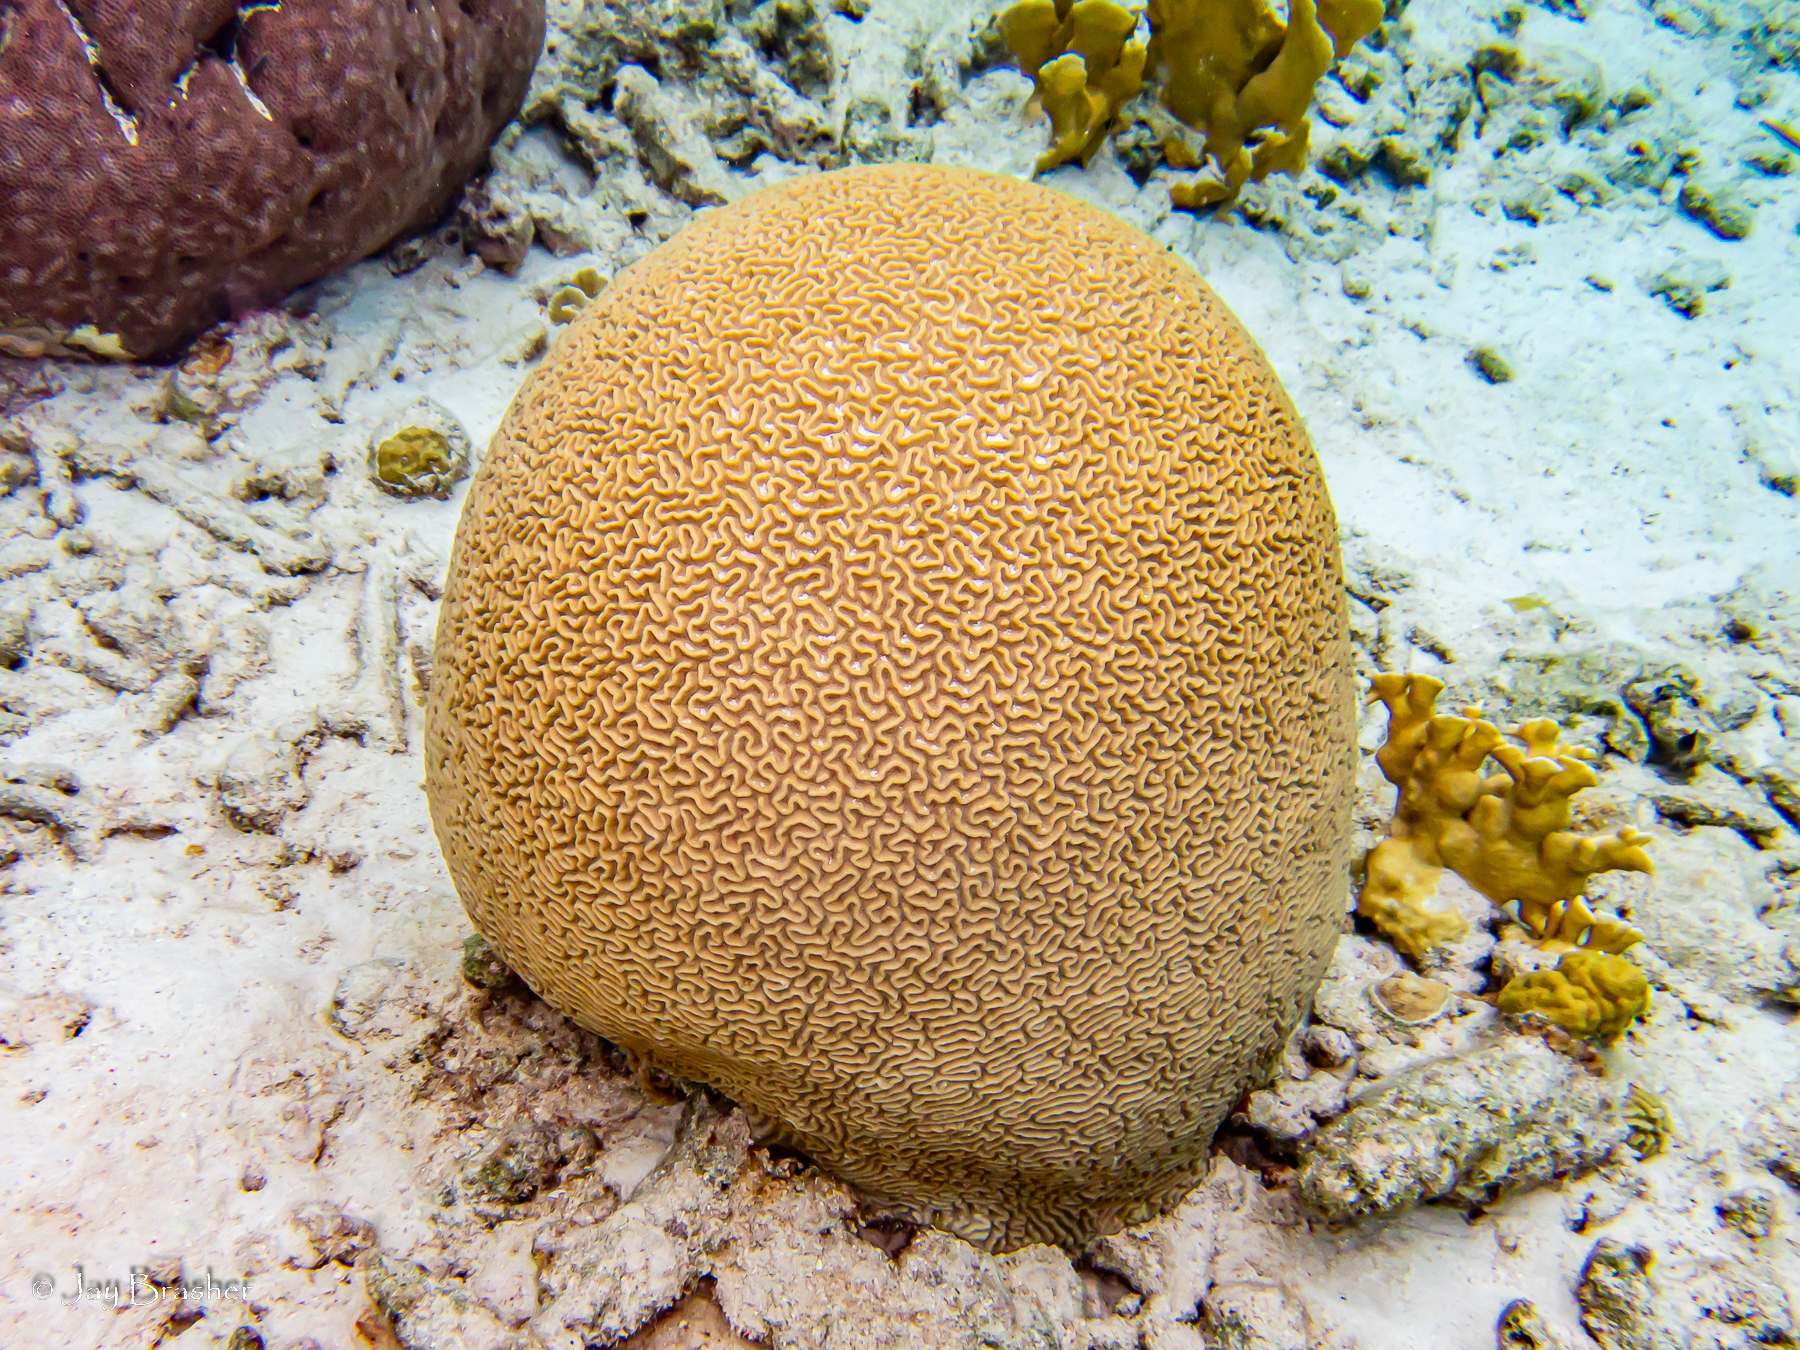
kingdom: Animalia
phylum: Cnidaria
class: Anthozoa
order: Scleractinia
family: Faviidae
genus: Pseudodiploria
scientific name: Pseudodiploria strigosa
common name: Symmetrical brain coral
